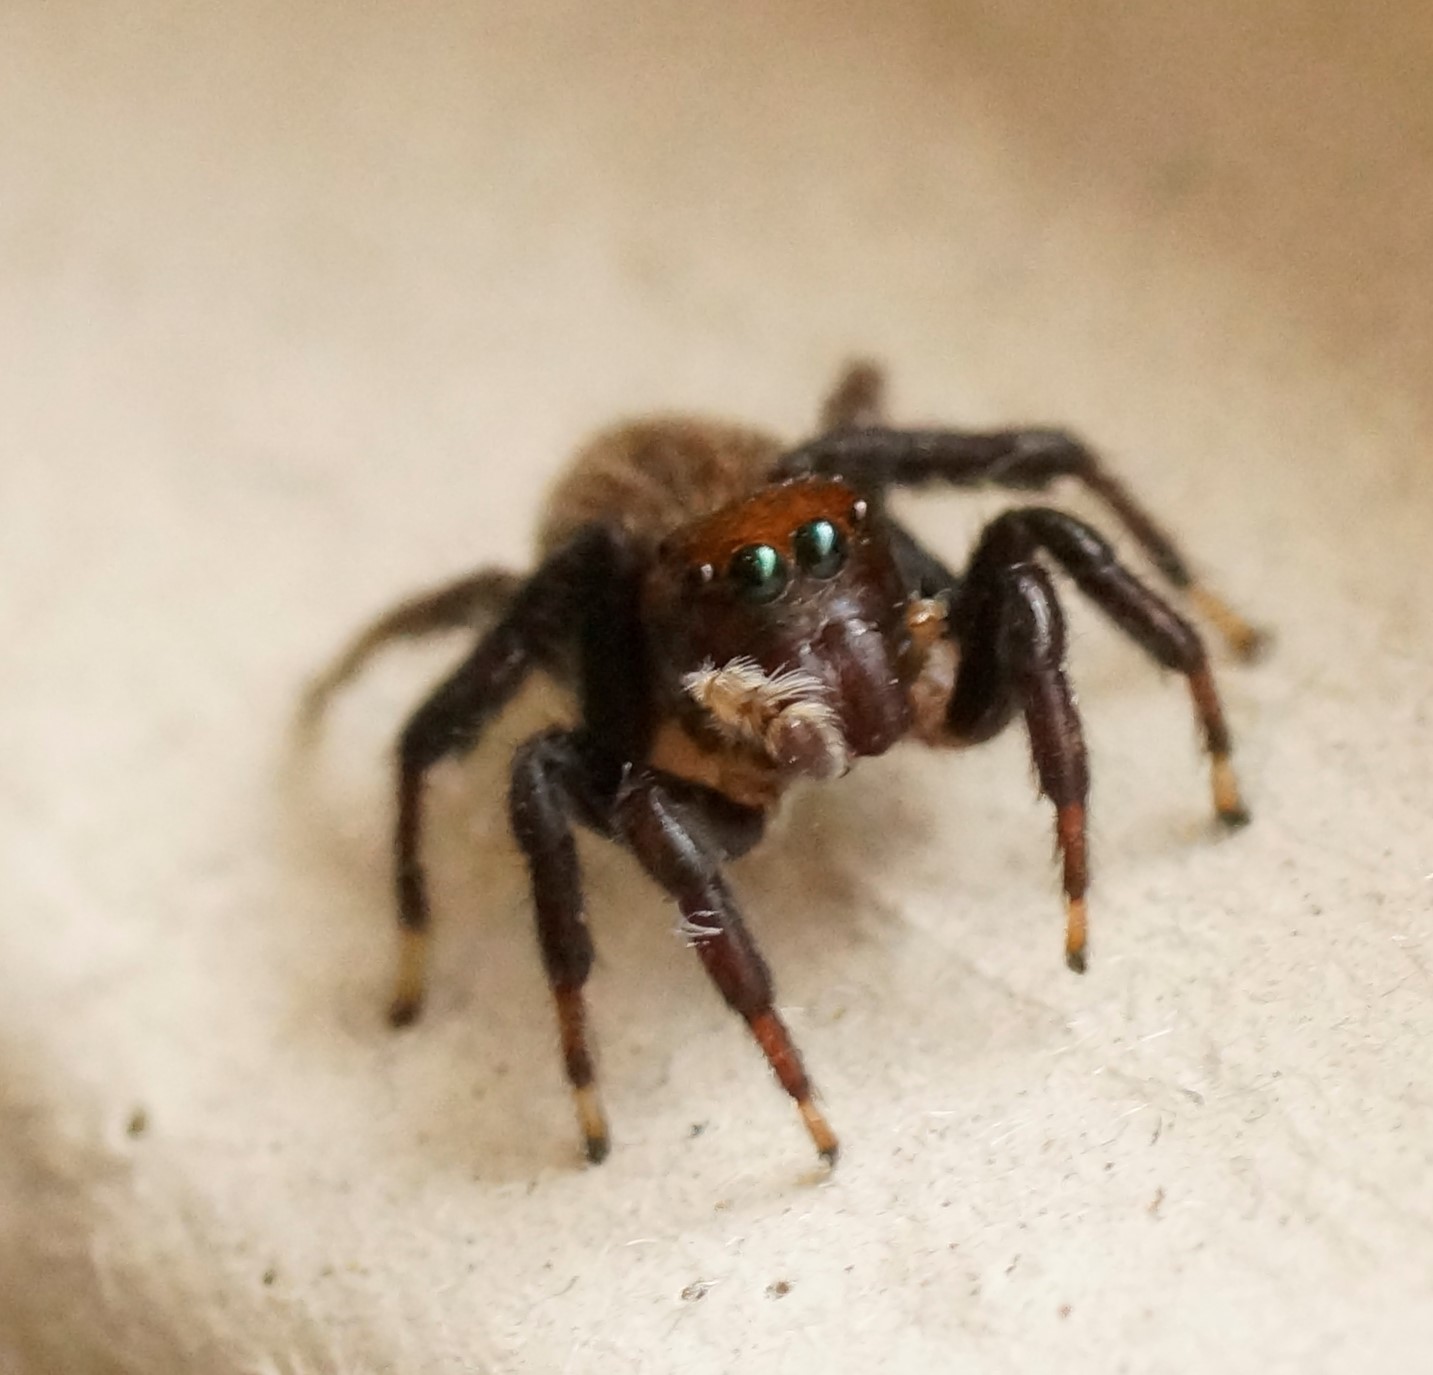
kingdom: Animalia
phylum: Arthropoda
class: Arachnida
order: Araneae
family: Salticidae
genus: Maratus
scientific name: Maratus griseus
